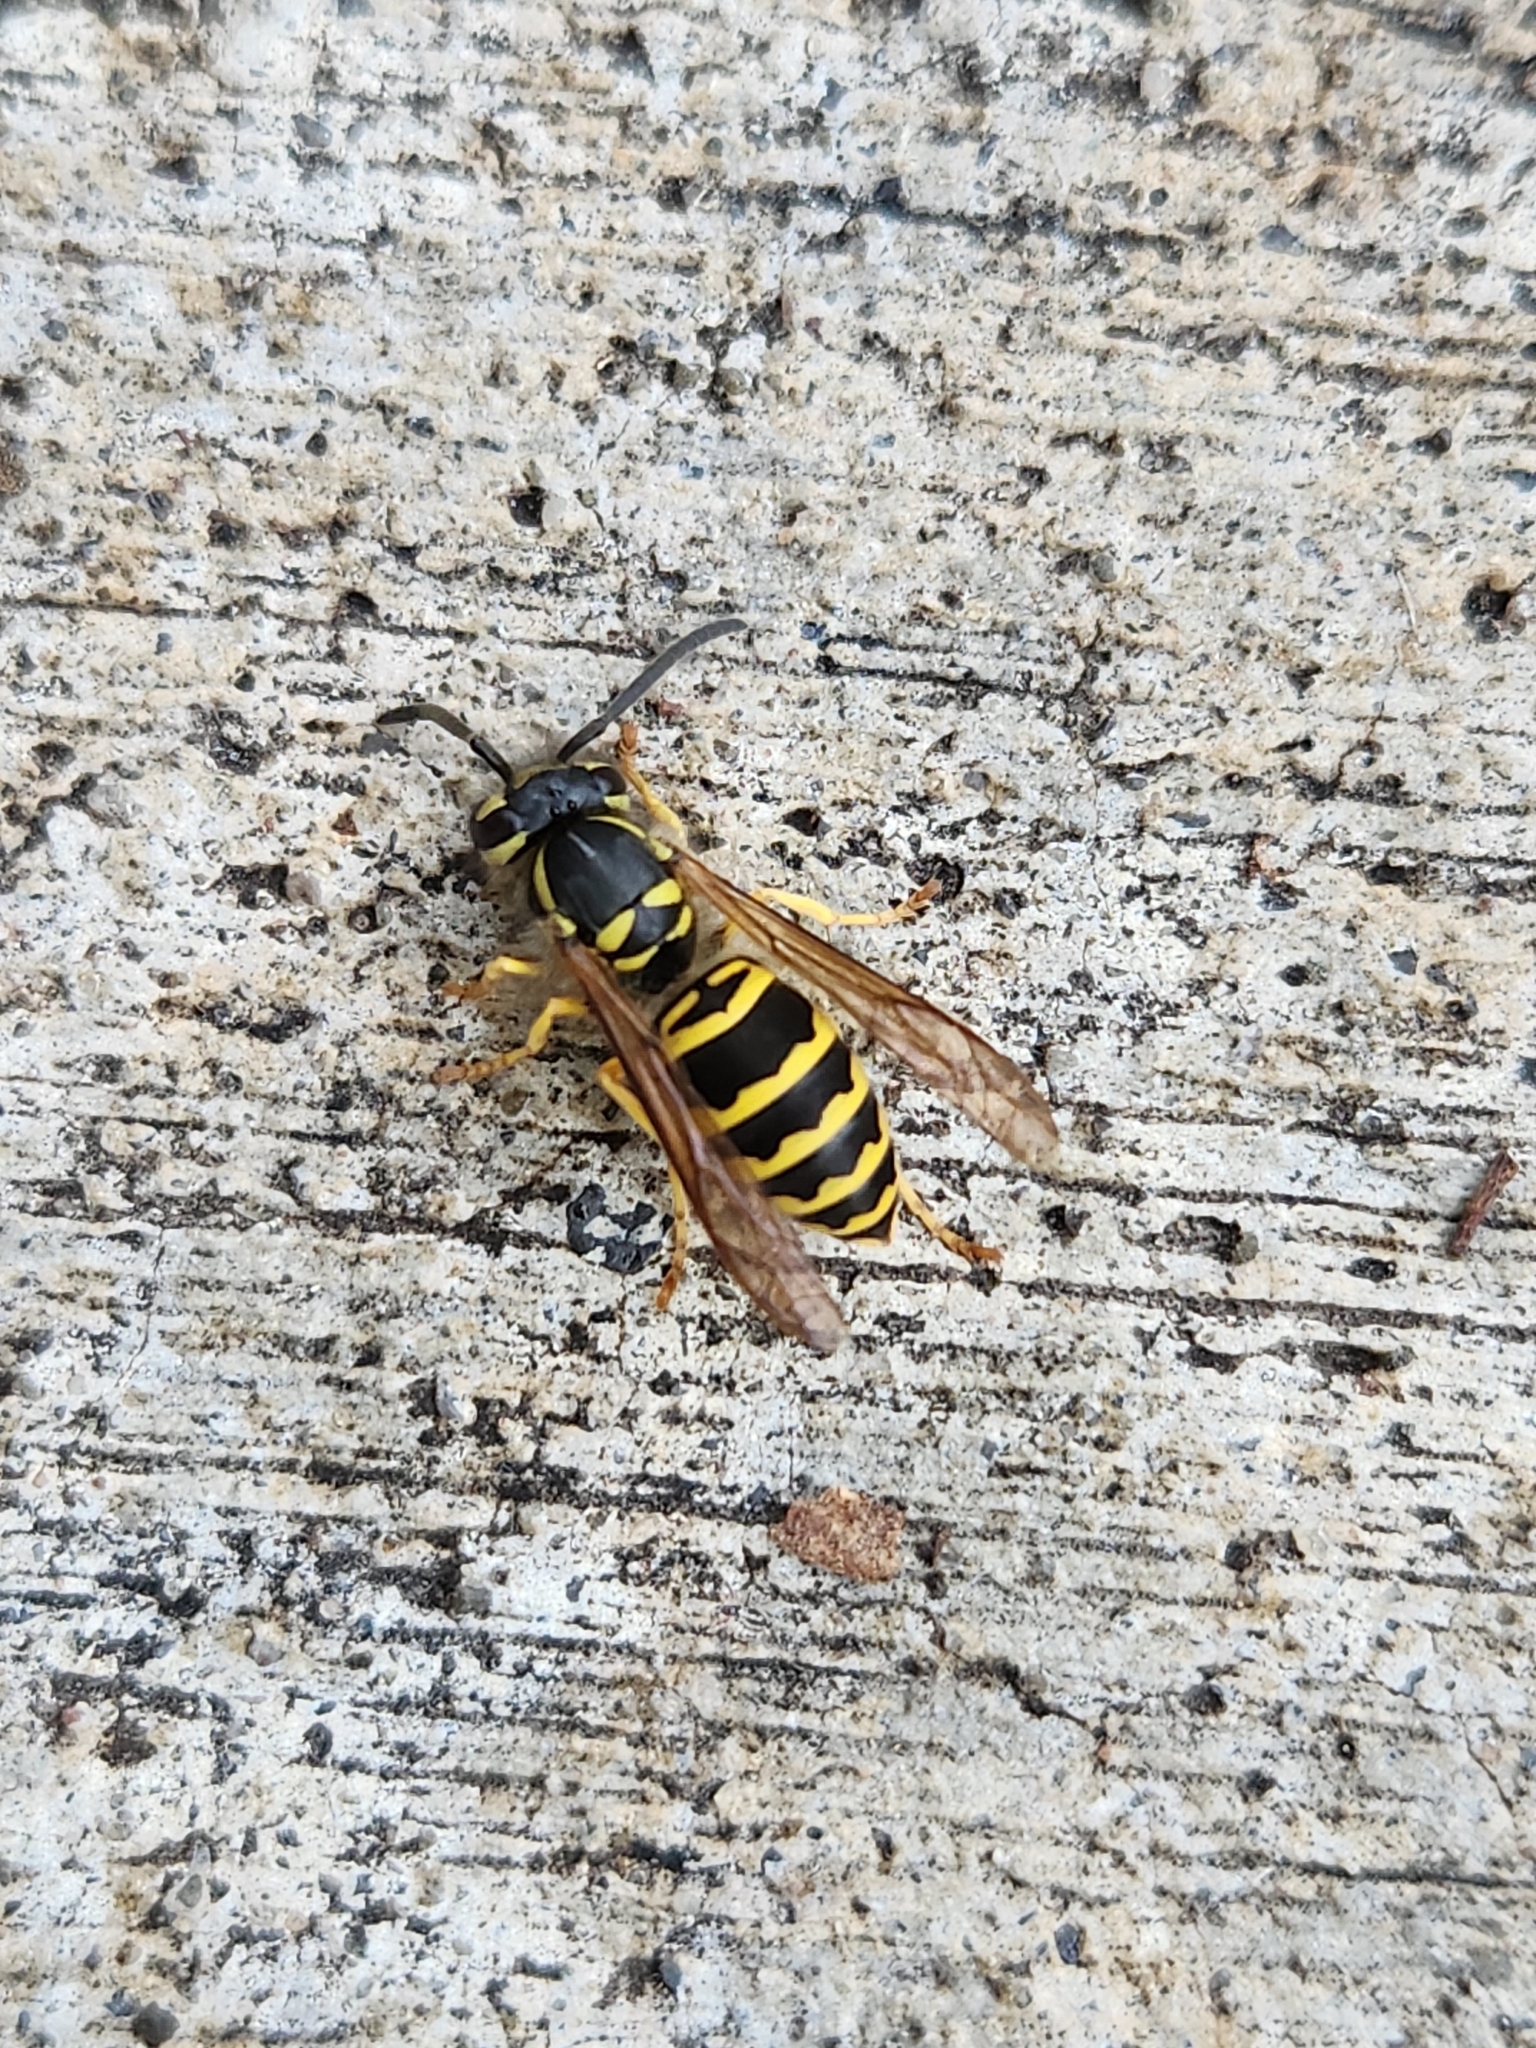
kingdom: Animalia
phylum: Arthropoda
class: Insecta
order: Hymenoptera
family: Vespidae
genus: Vespula
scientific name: Vespula maculifrons
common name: Eastern yellowjacket
